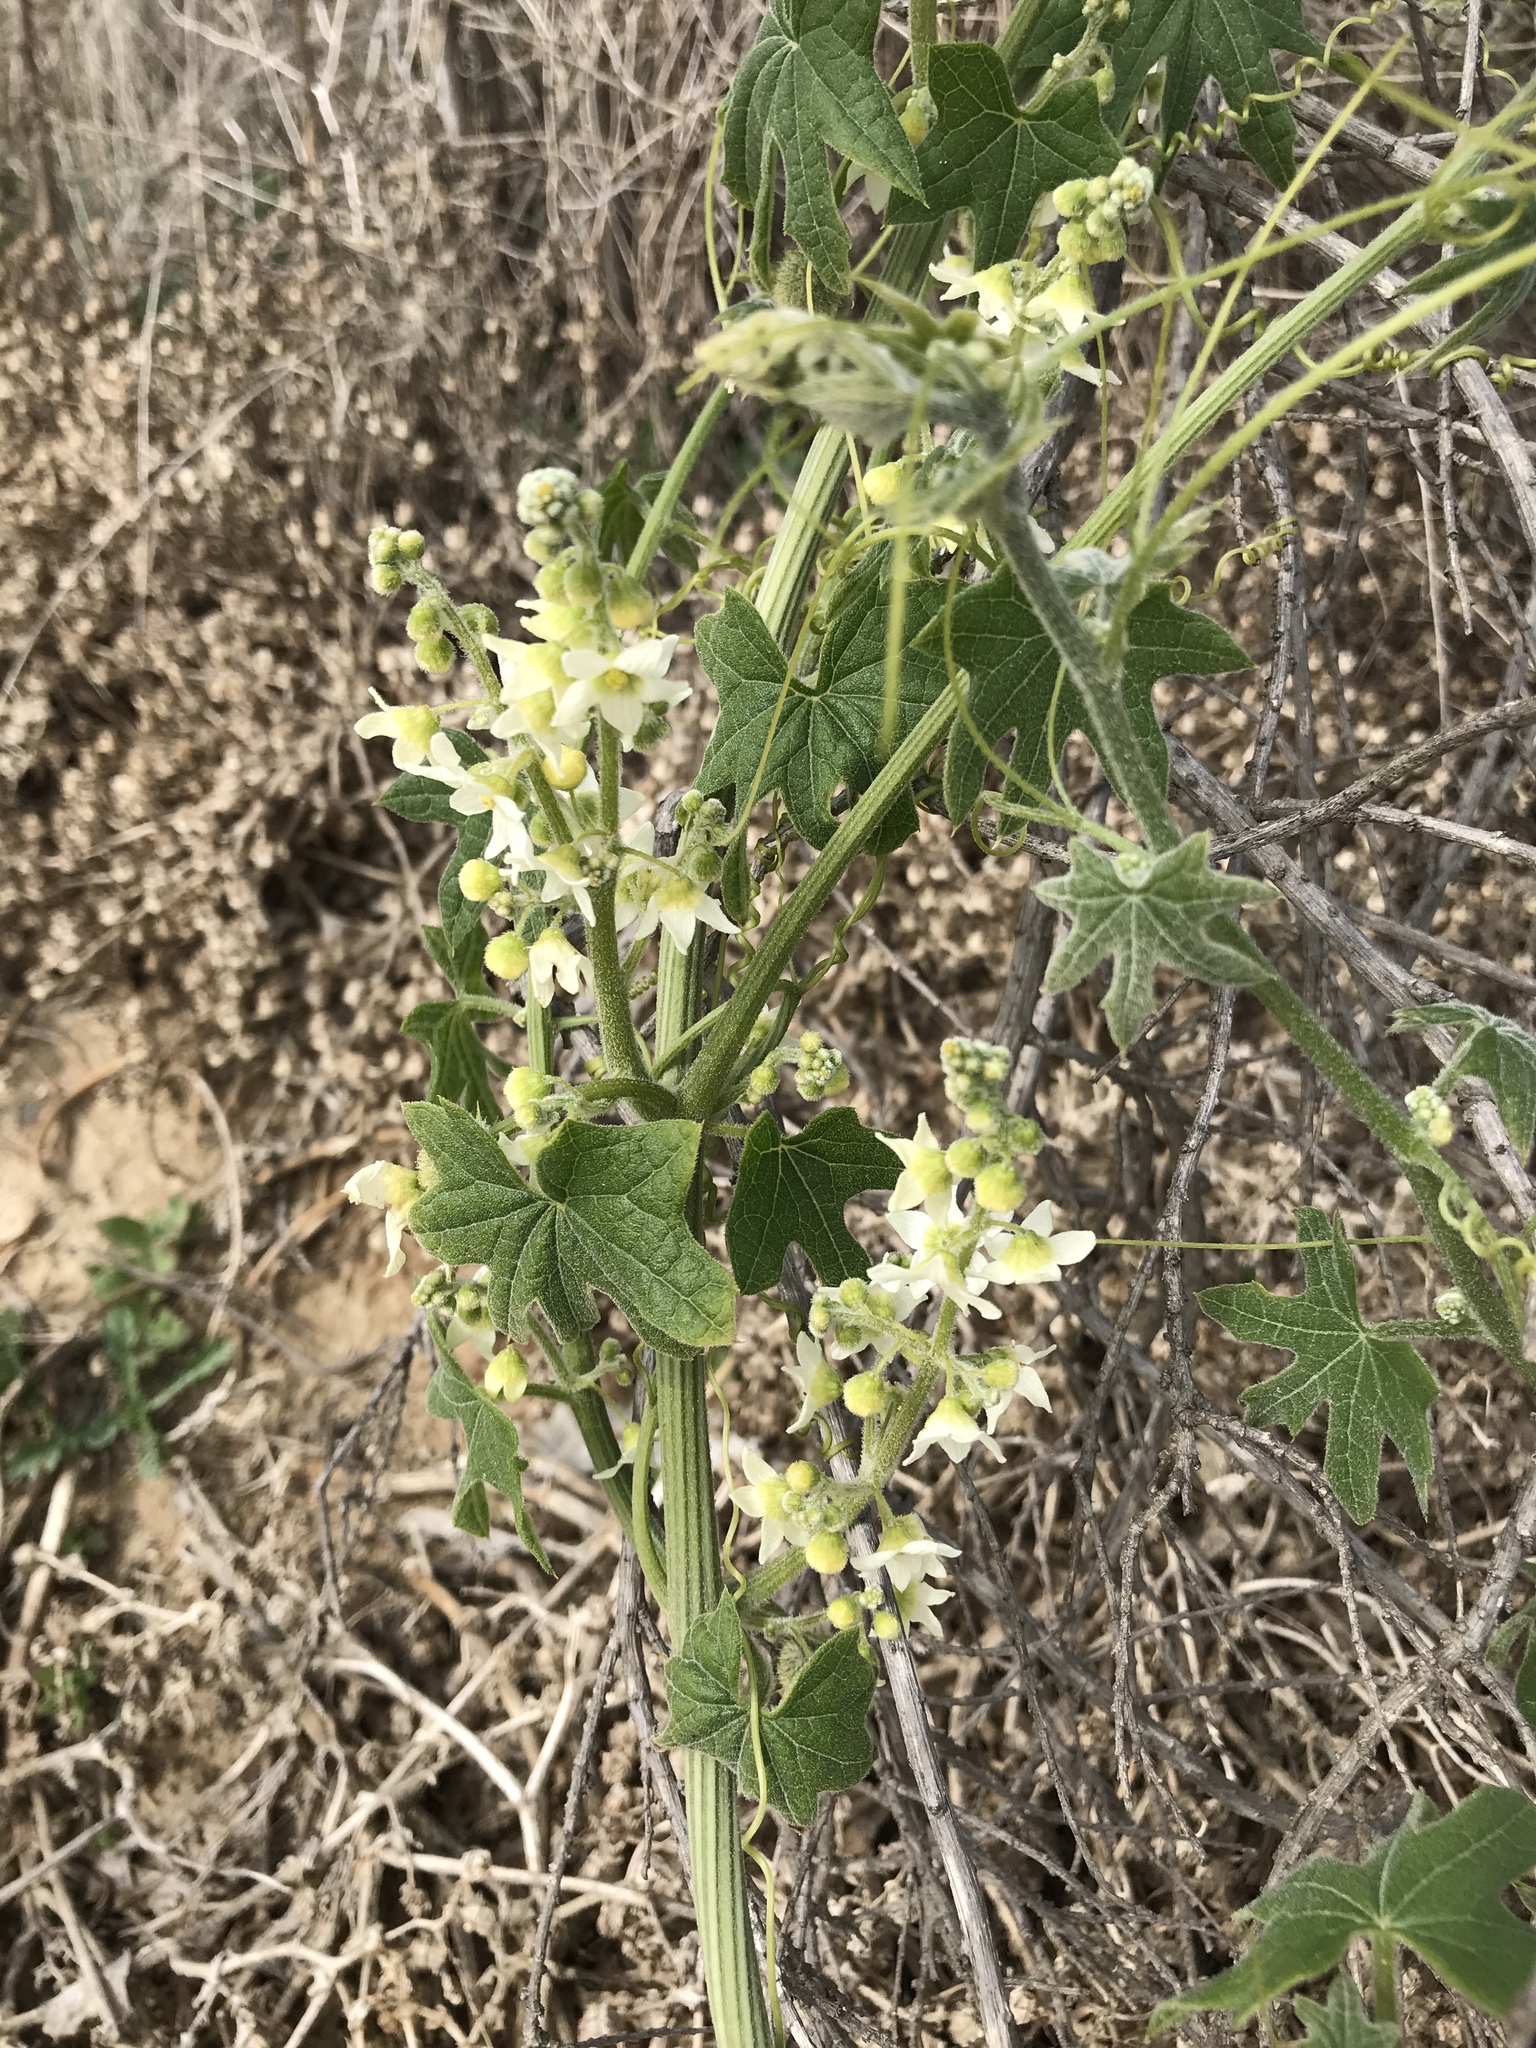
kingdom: Plantae
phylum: Tracheophyta
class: Magnoliopsida
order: Cucurbitales
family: Cucurbitaceae
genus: Marah
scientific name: Marah macrocarpa
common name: Cucamonga manroot
